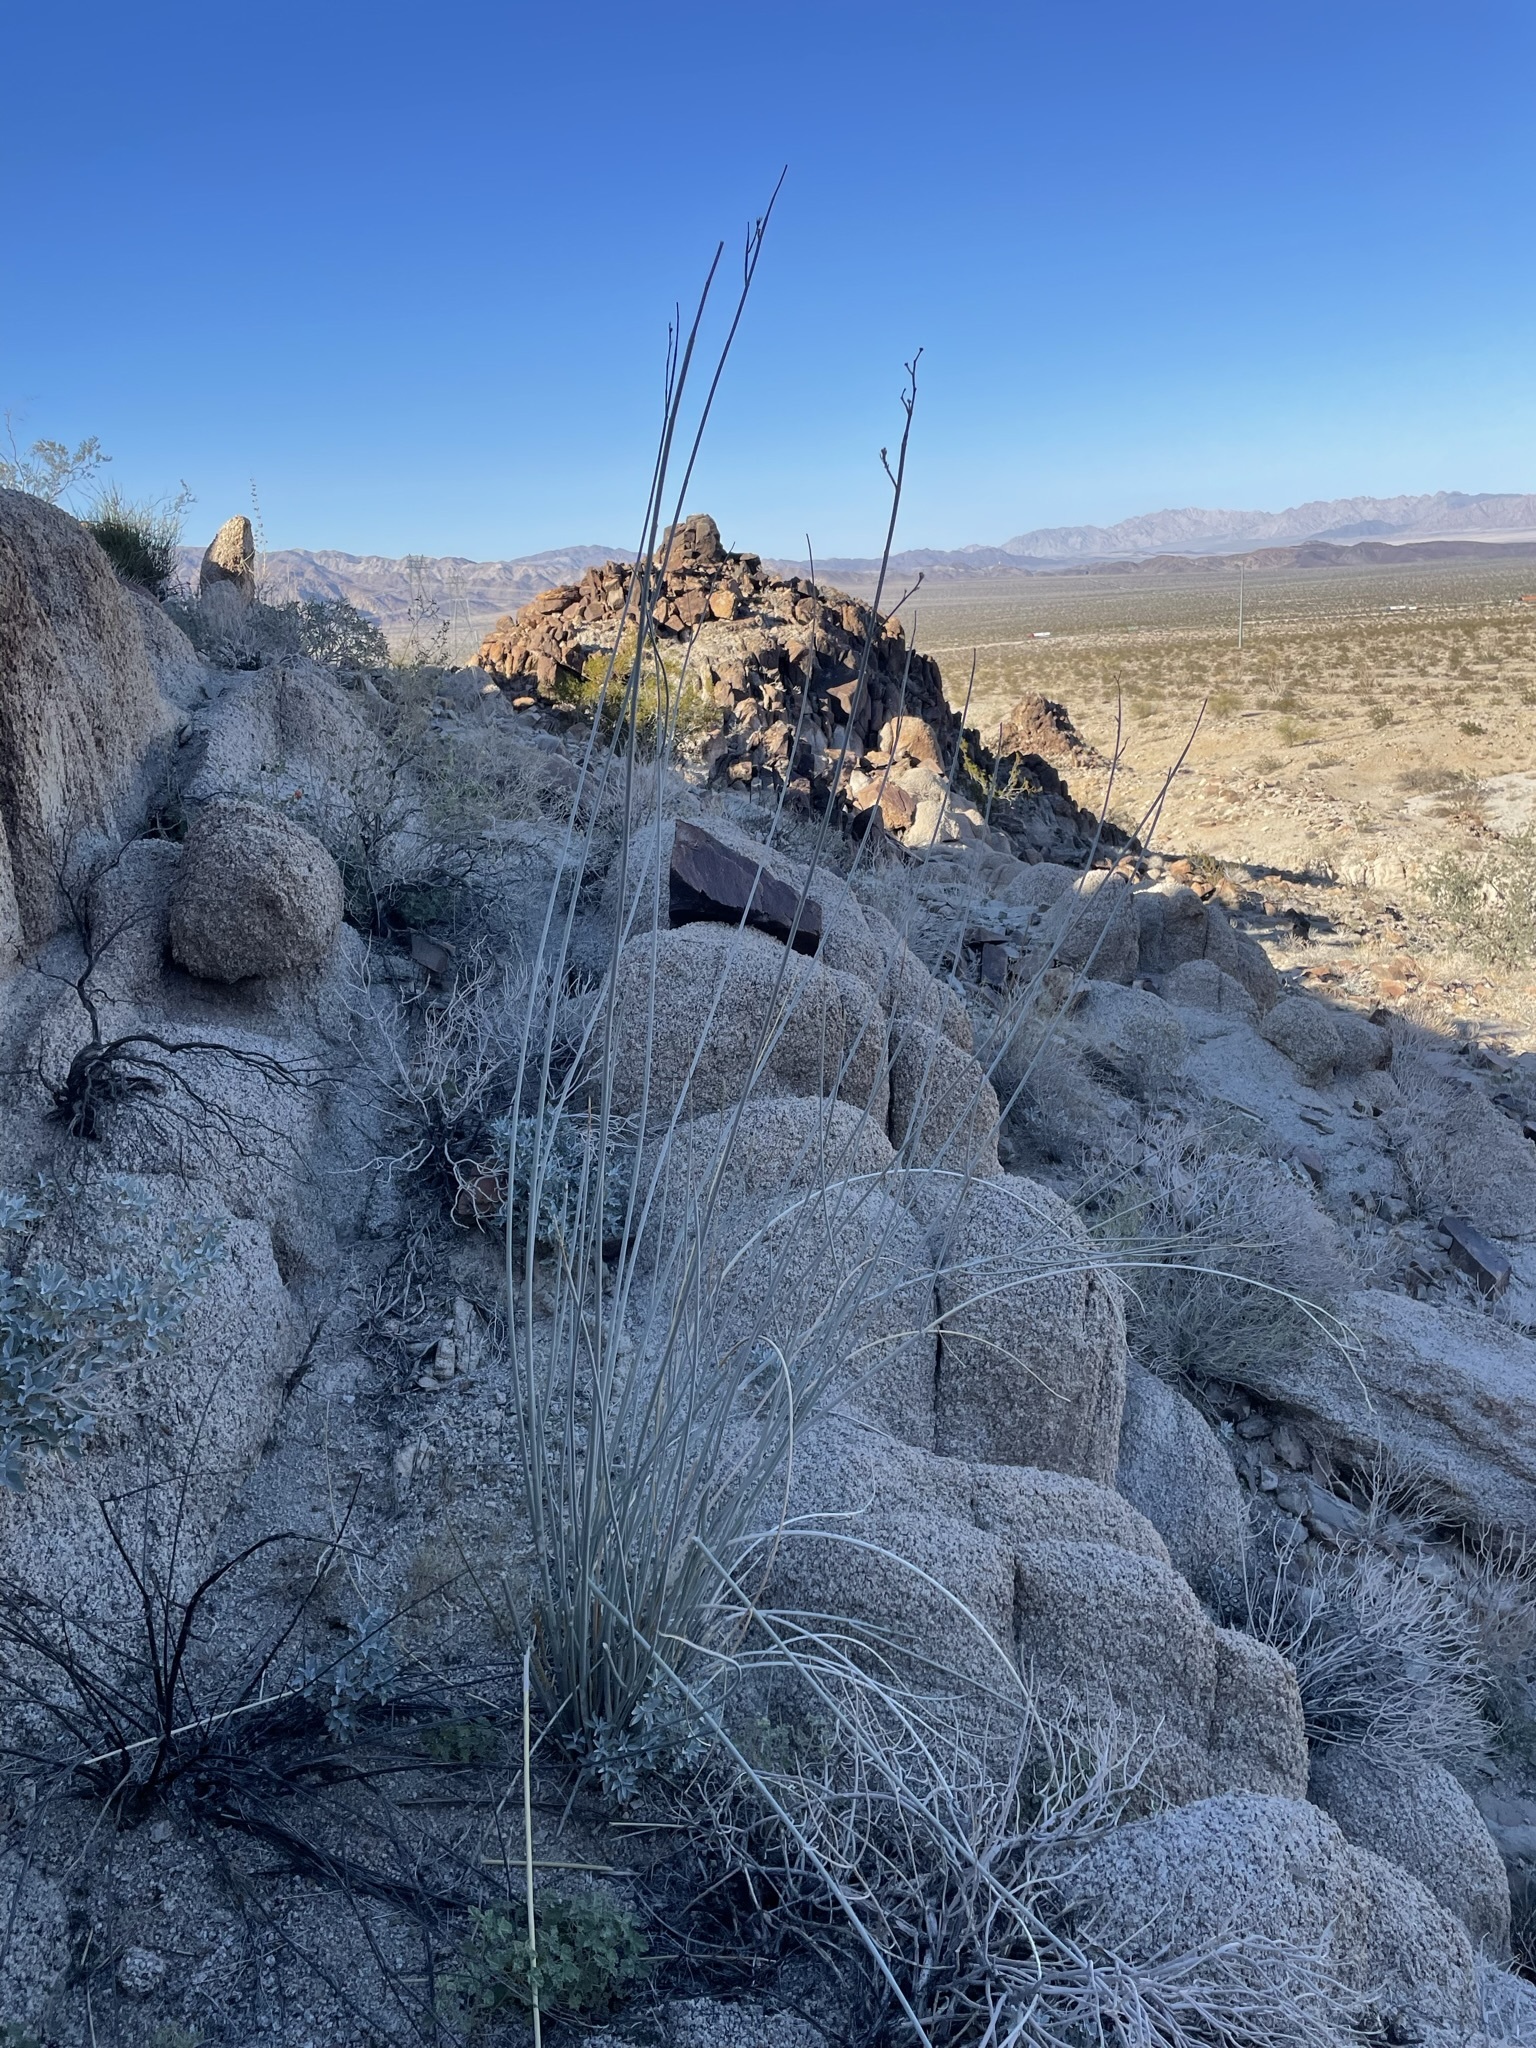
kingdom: Plantae
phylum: Tracheophyta
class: Magnoliopsida
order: Gentianales
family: Apocynaceae
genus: Asclepias
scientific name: Asclepias albicans
